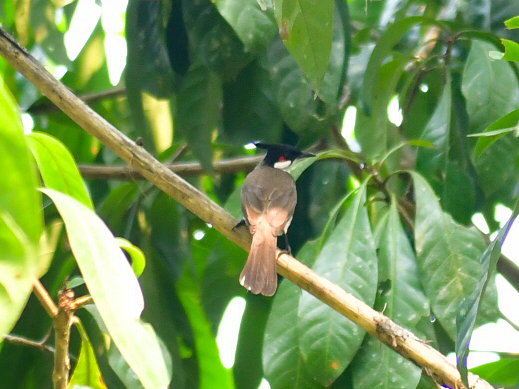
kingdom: Animalia
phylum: Chordata
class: Aves
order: Passeriformes
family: Pycnonotidae
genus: Pycnonotus
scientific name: Pycnonotus jocosus
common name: Red-whiskered bulbul
